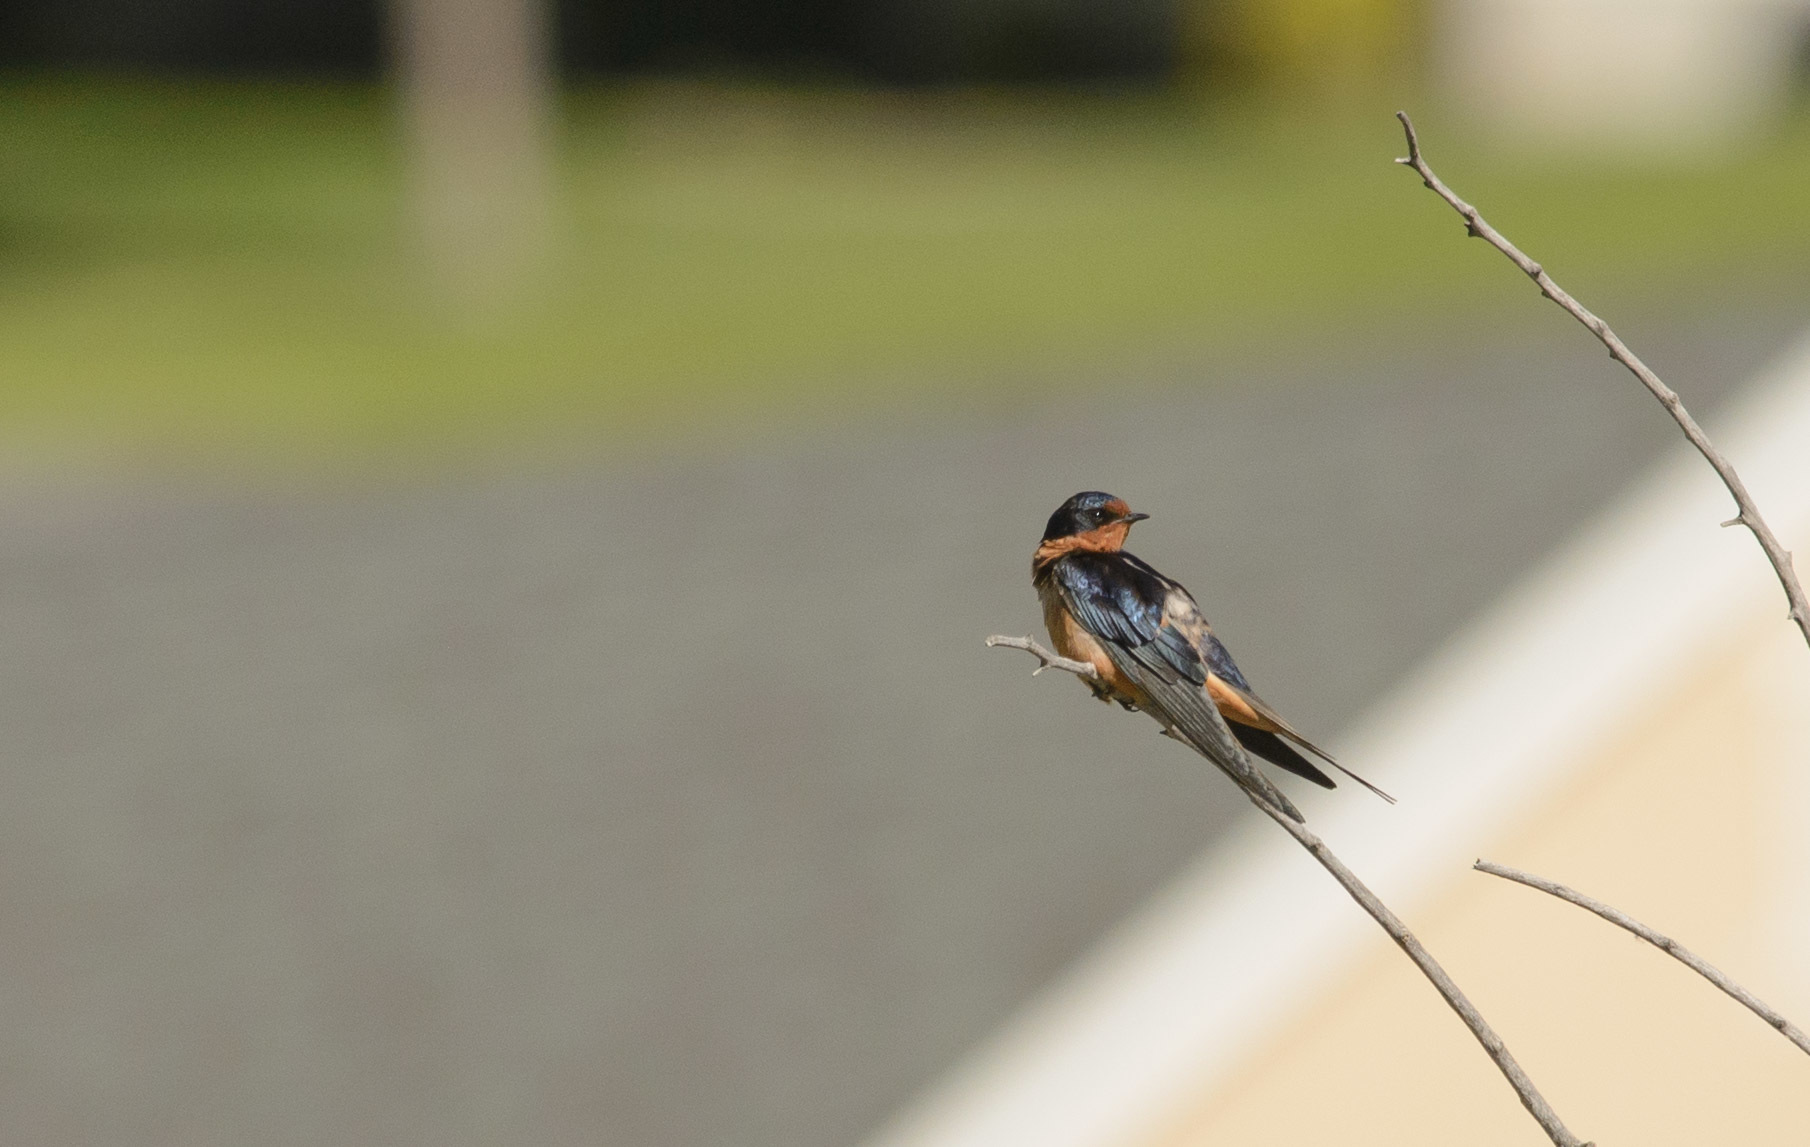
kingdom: Animalia
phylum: Chordata
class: Aves
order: Passeriformes
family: Hirundinidae
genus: Hirundo
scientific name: Hirundo rustica
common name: Barn swallow
